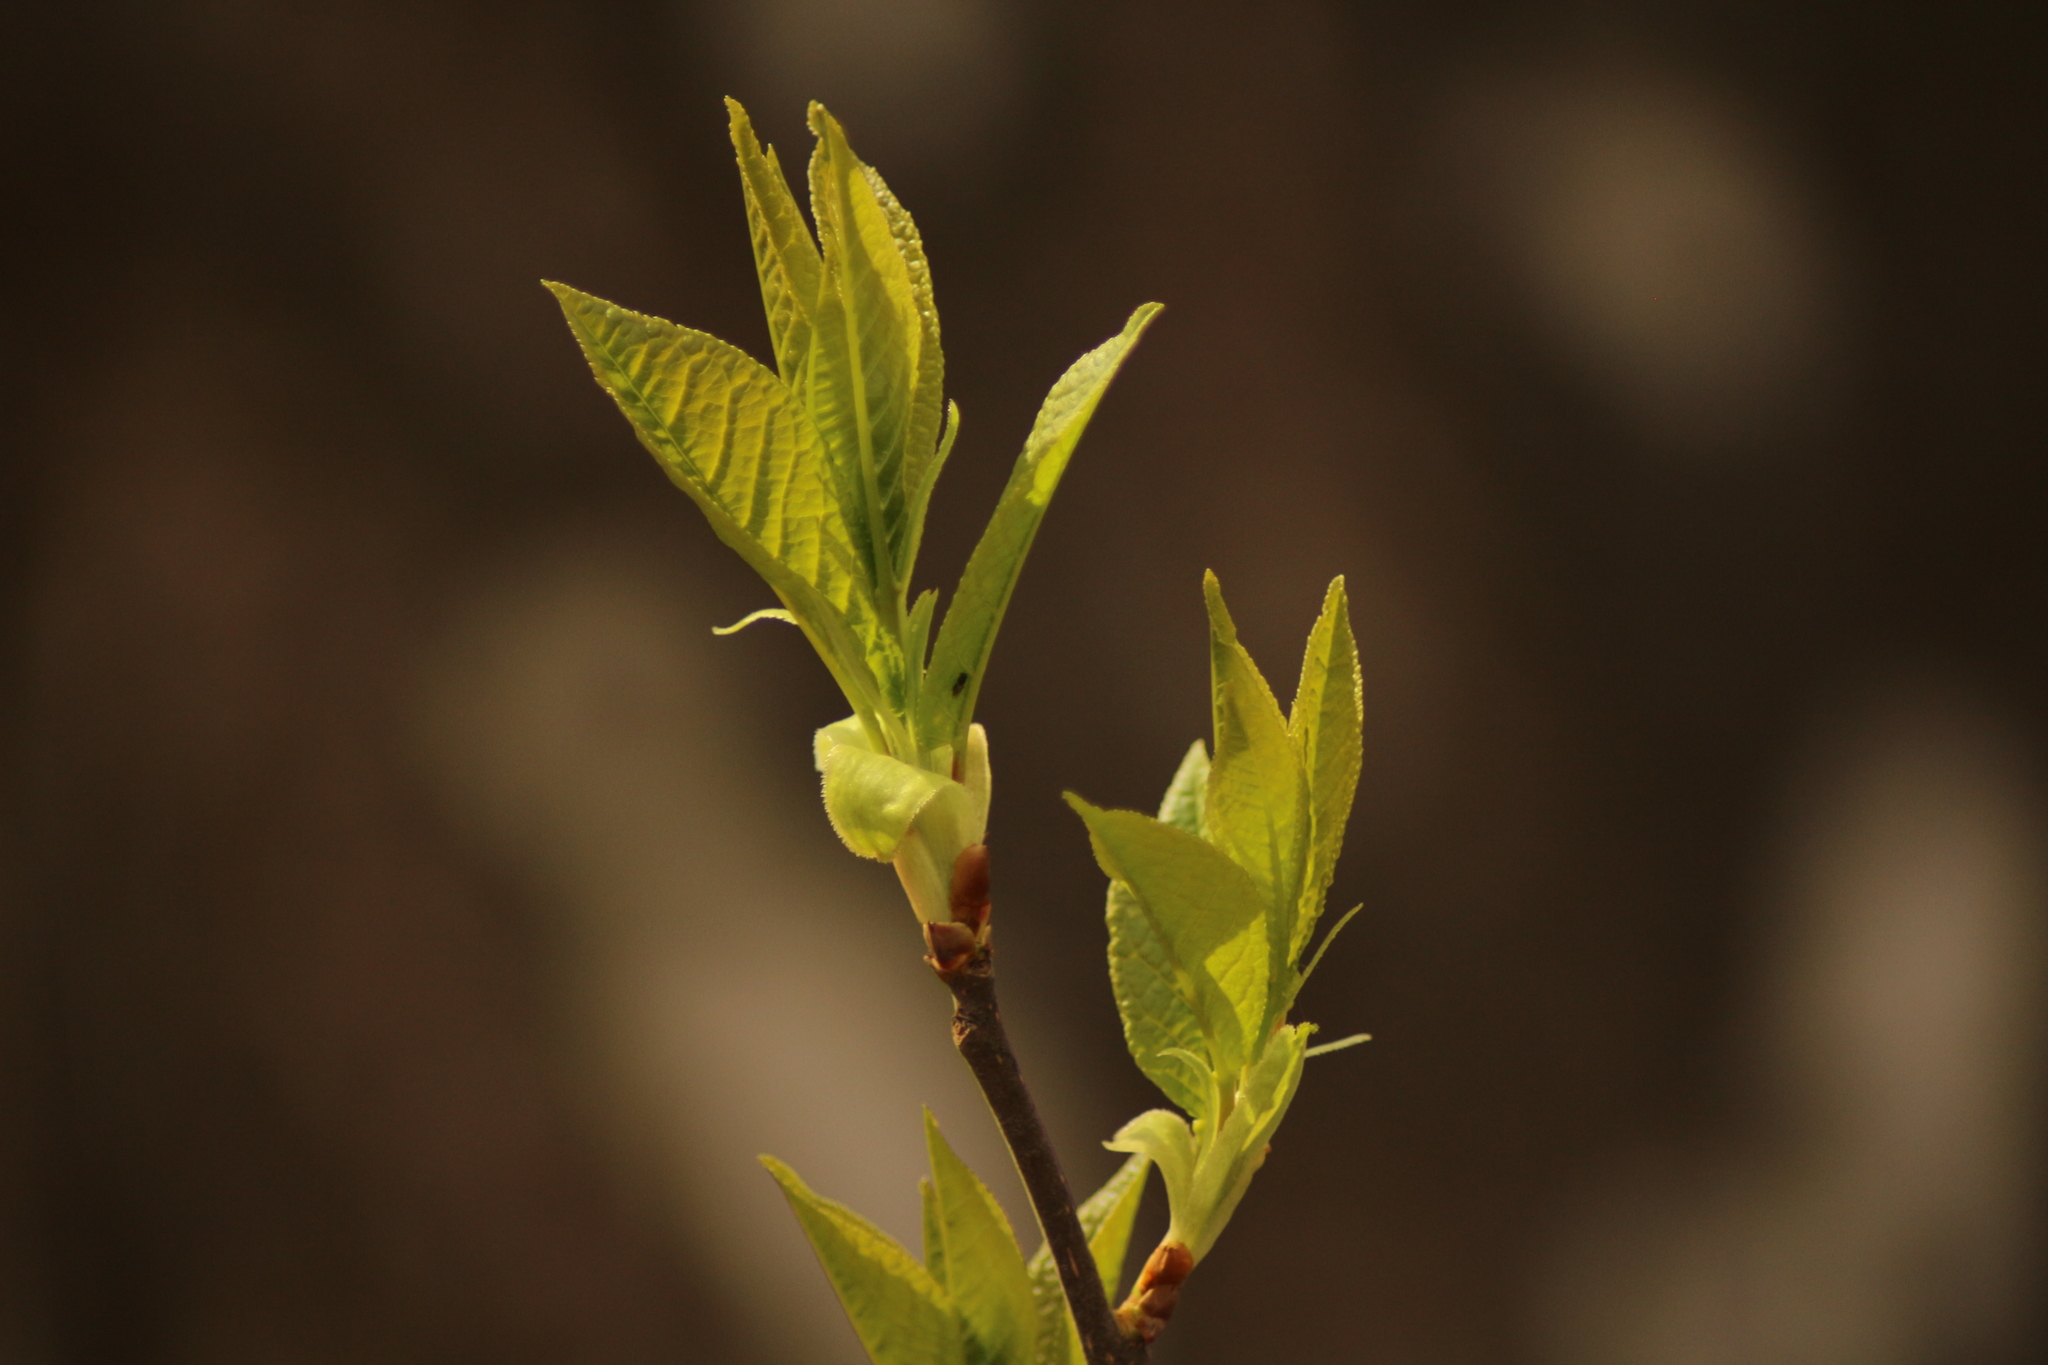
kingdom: Plantae
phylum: Tracheophyta
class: Magnoliopsida
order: Rosales
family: Rosaceae
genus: Prunus
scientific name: Prunus padus
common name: Bird cherry
